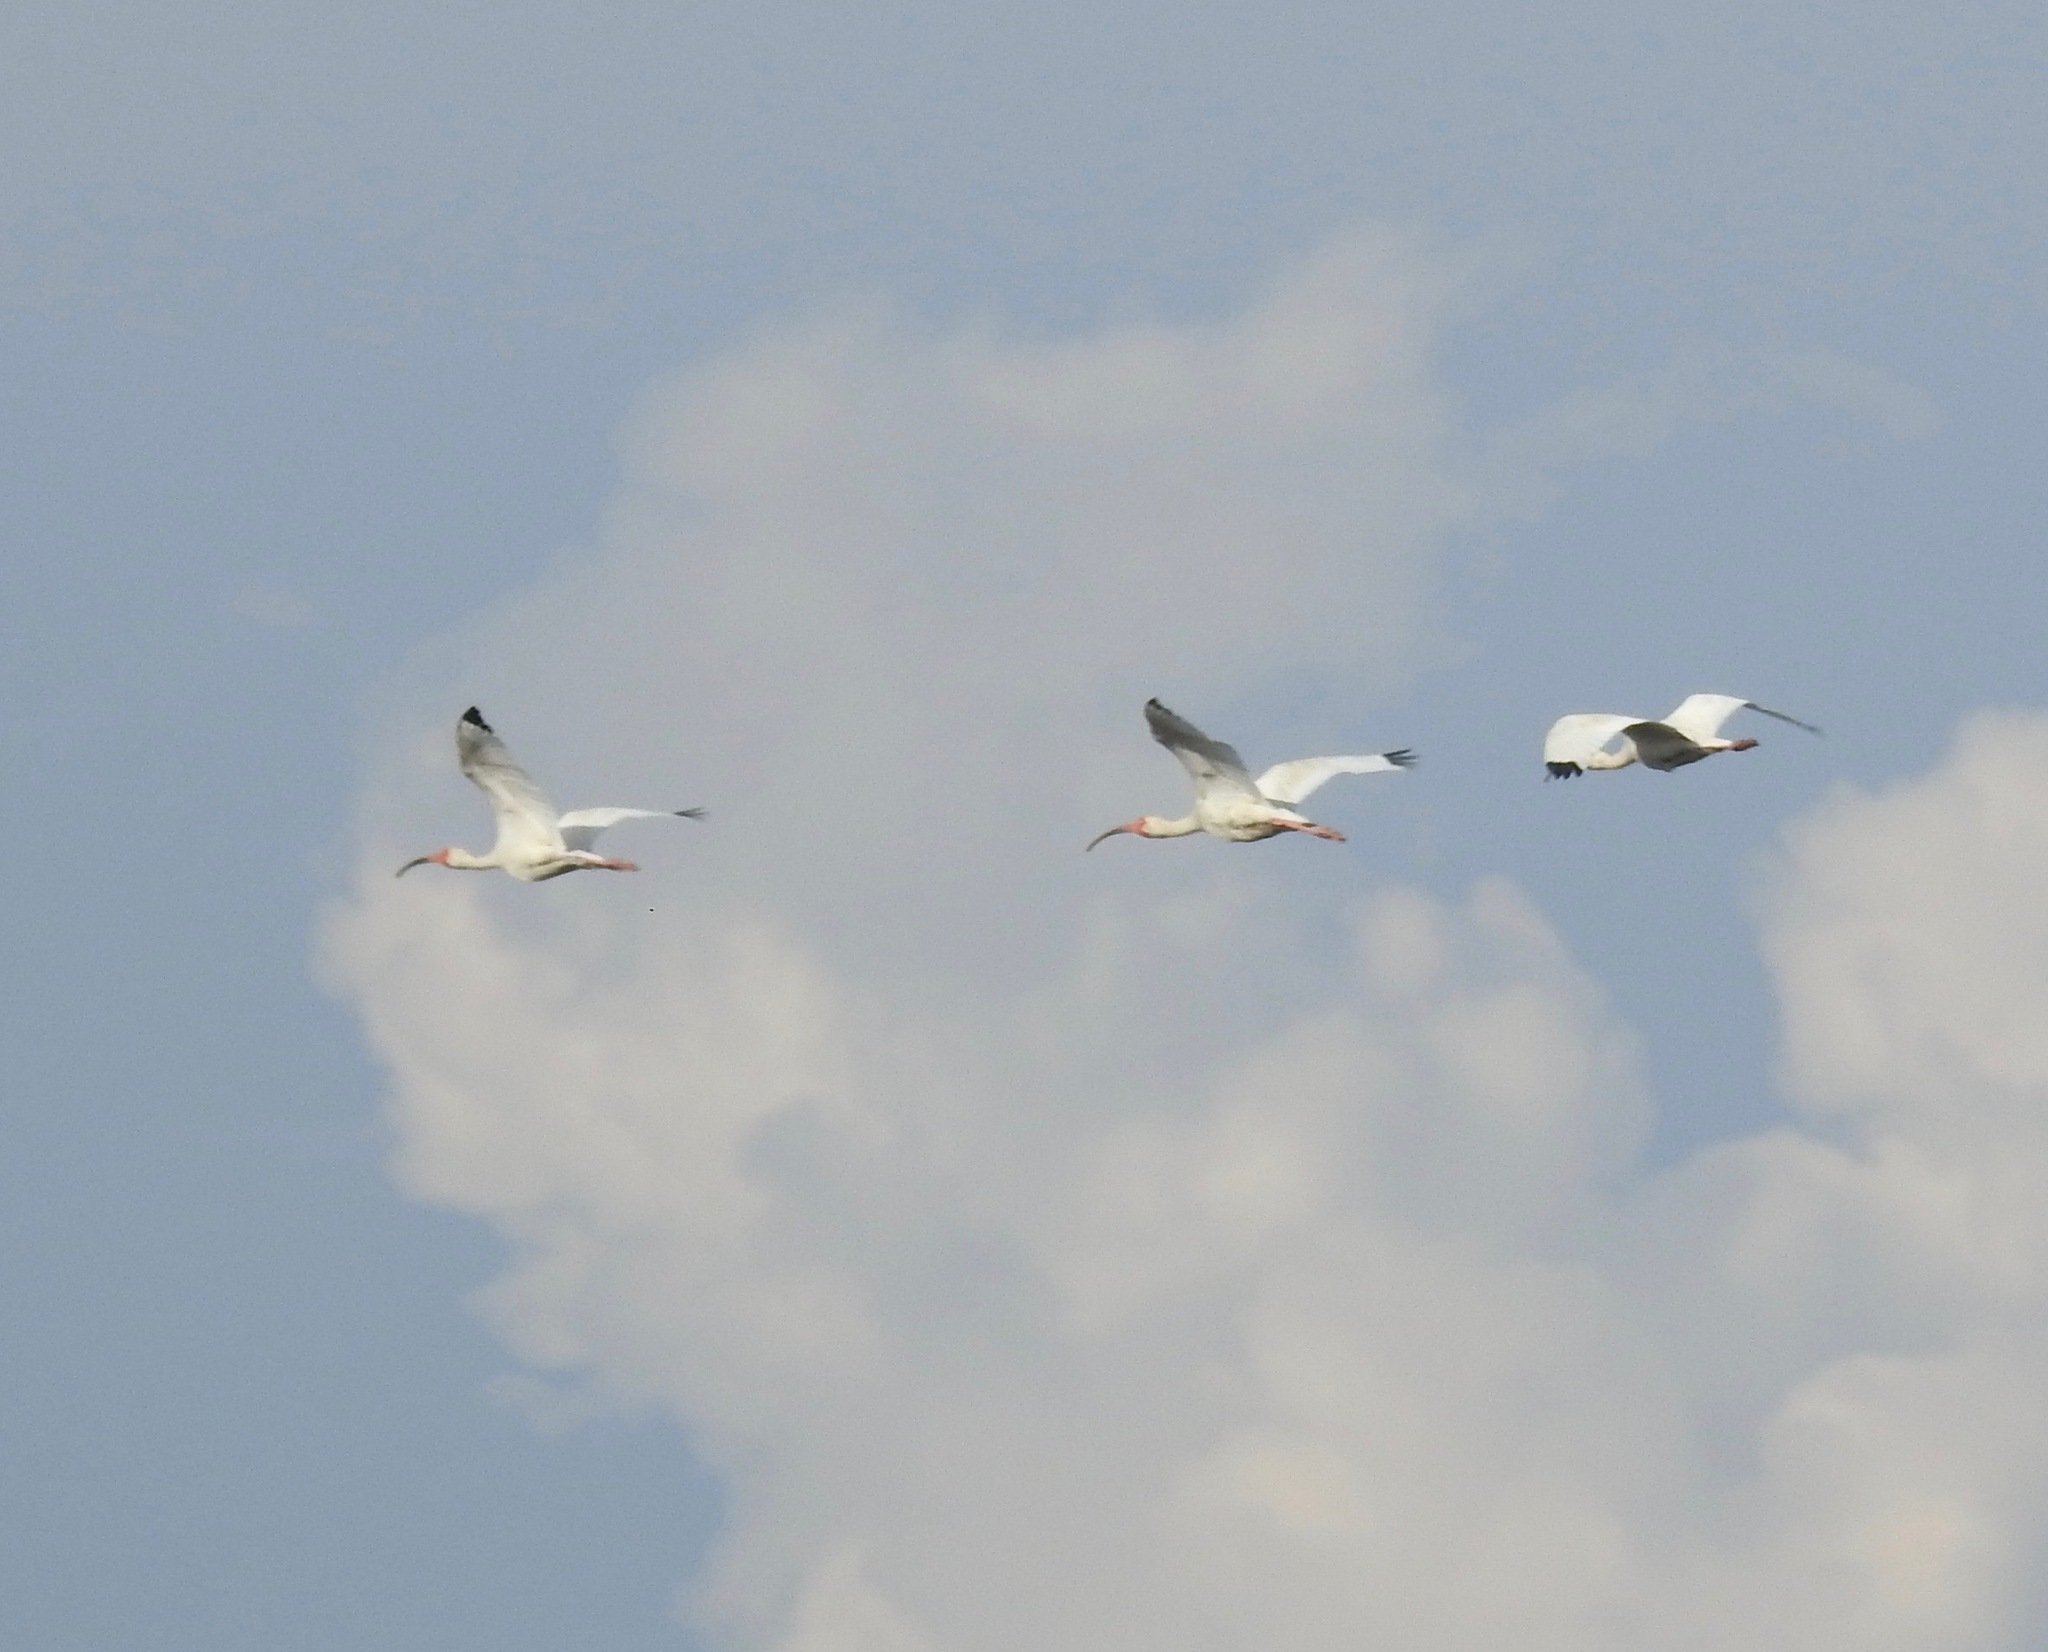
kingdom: Animalia
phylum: Chordata
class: Aves
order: Pelecaniformes
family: Threskiornithidae
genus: Eudocimus
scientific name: Eudocimus albus
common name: White ibis
